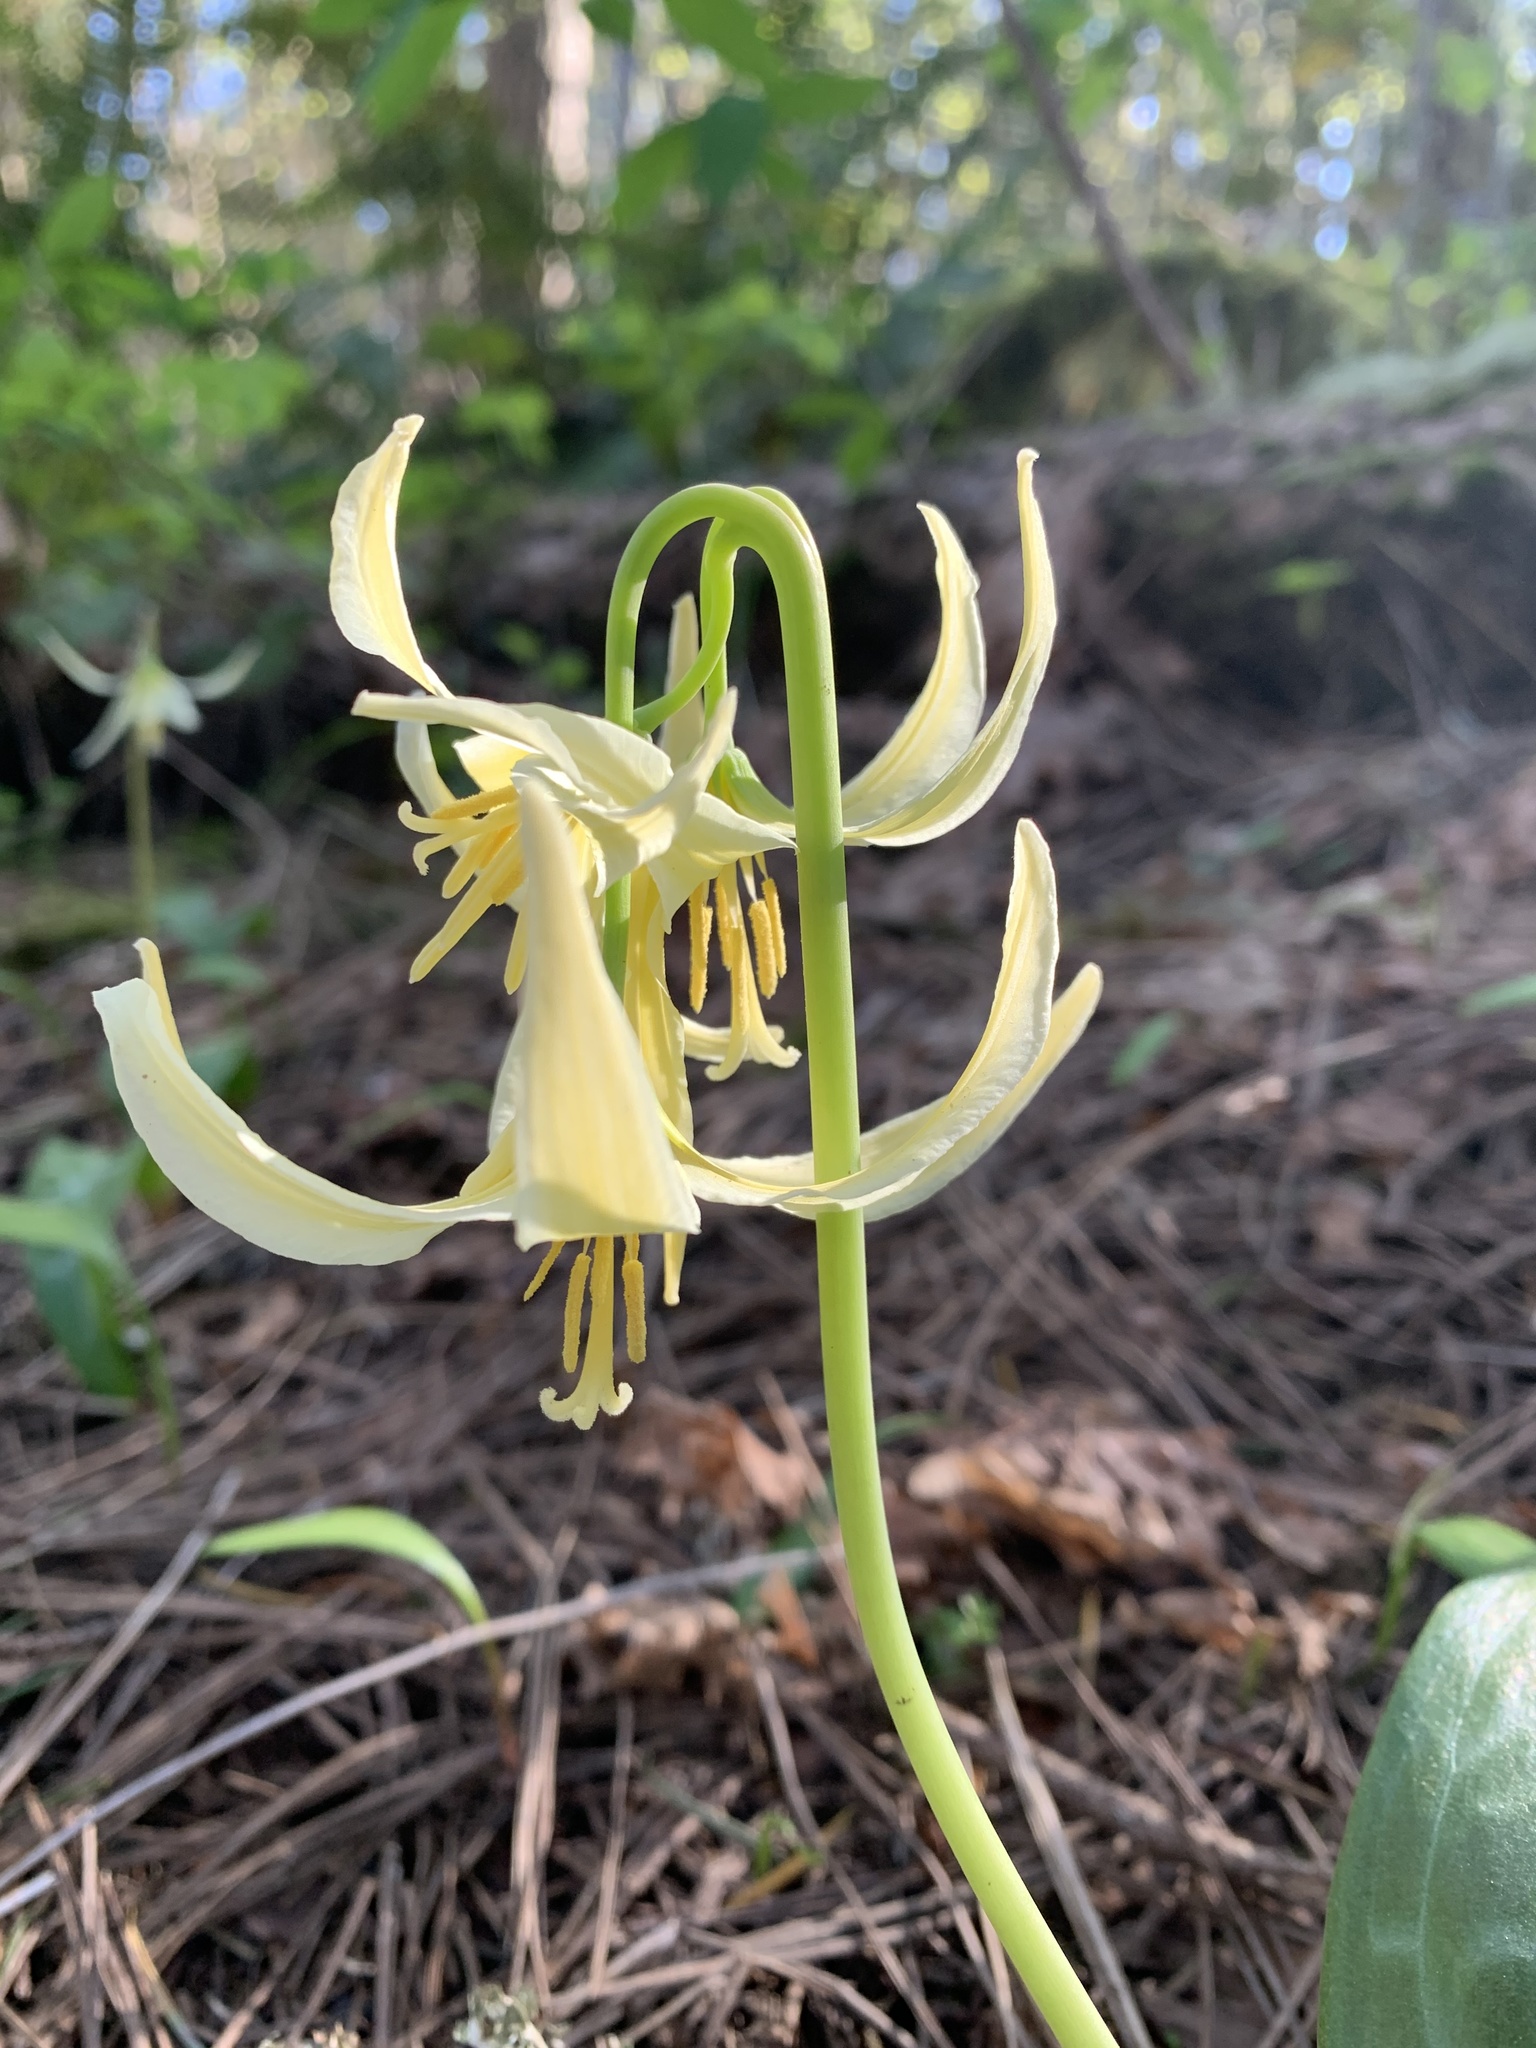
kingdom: Plantae
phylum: Tracheophyta
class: Liliopsida
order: Liliales
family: Liliaceae
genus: Erythronium
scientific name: Erythronium oregonum
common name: Giant adder's-tongue
